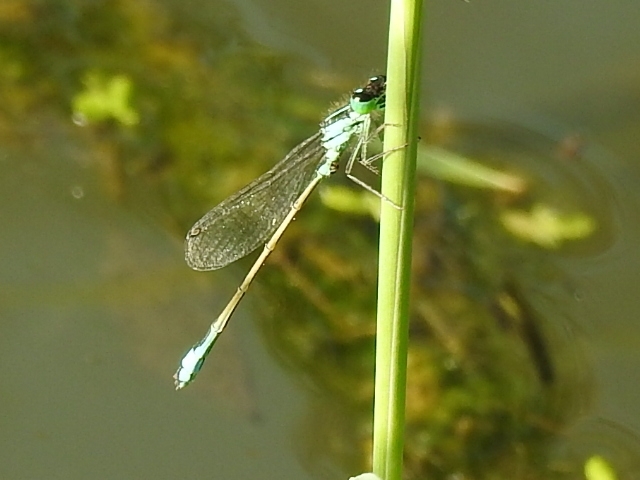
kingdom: Animalia
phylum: Arthropoda
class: Insecta
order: Odonata
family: Coenagrionidae
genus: Ischnura
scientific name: Ischnura elegans
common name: Blue-tailed damselfly
